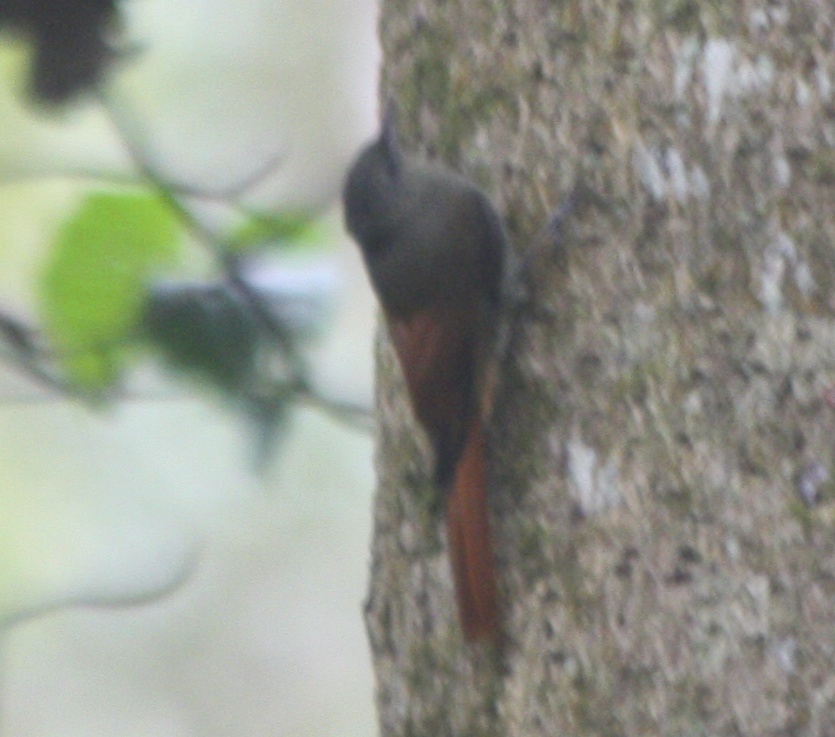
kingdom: Animalia
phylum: Chordata
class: Aves
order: Passeriformes
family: Furnariidae
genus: Sittasomus
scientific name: Sittasomus griseicapillus
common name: Olivaceous woodcreeper
